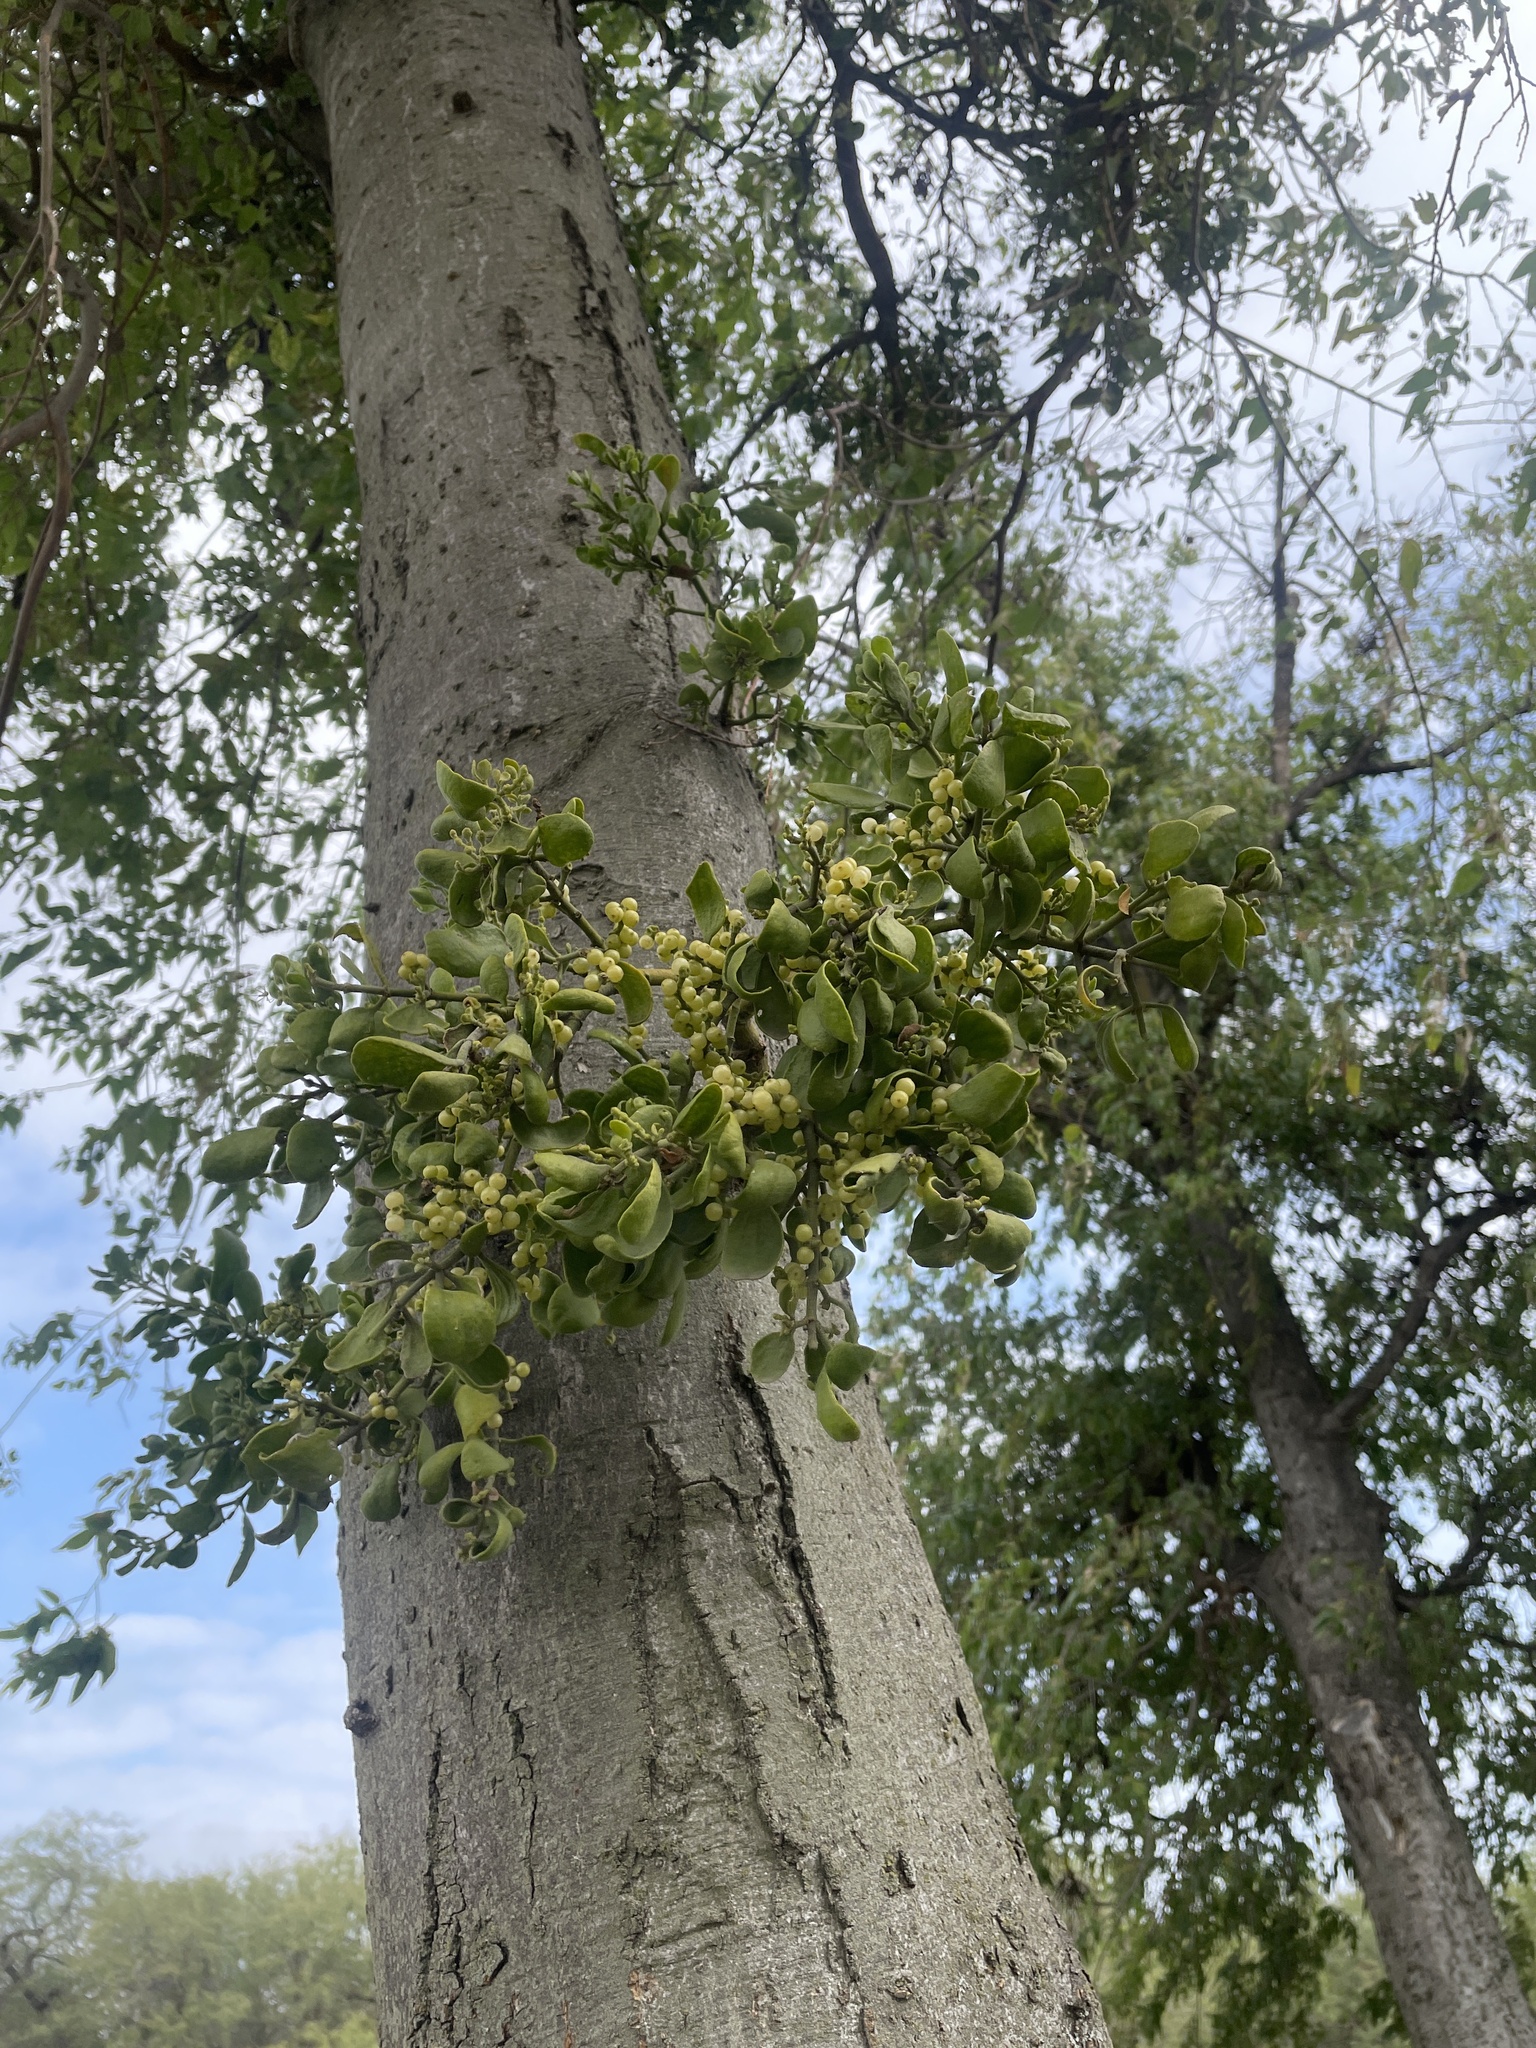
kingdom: Plantae
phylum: Tracheophyta
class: Magnoliopsida
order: Santalales
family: Viscaceae
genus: Phoradendron
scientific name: Phoradendron leucarpum
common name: Pacific mistletoe
